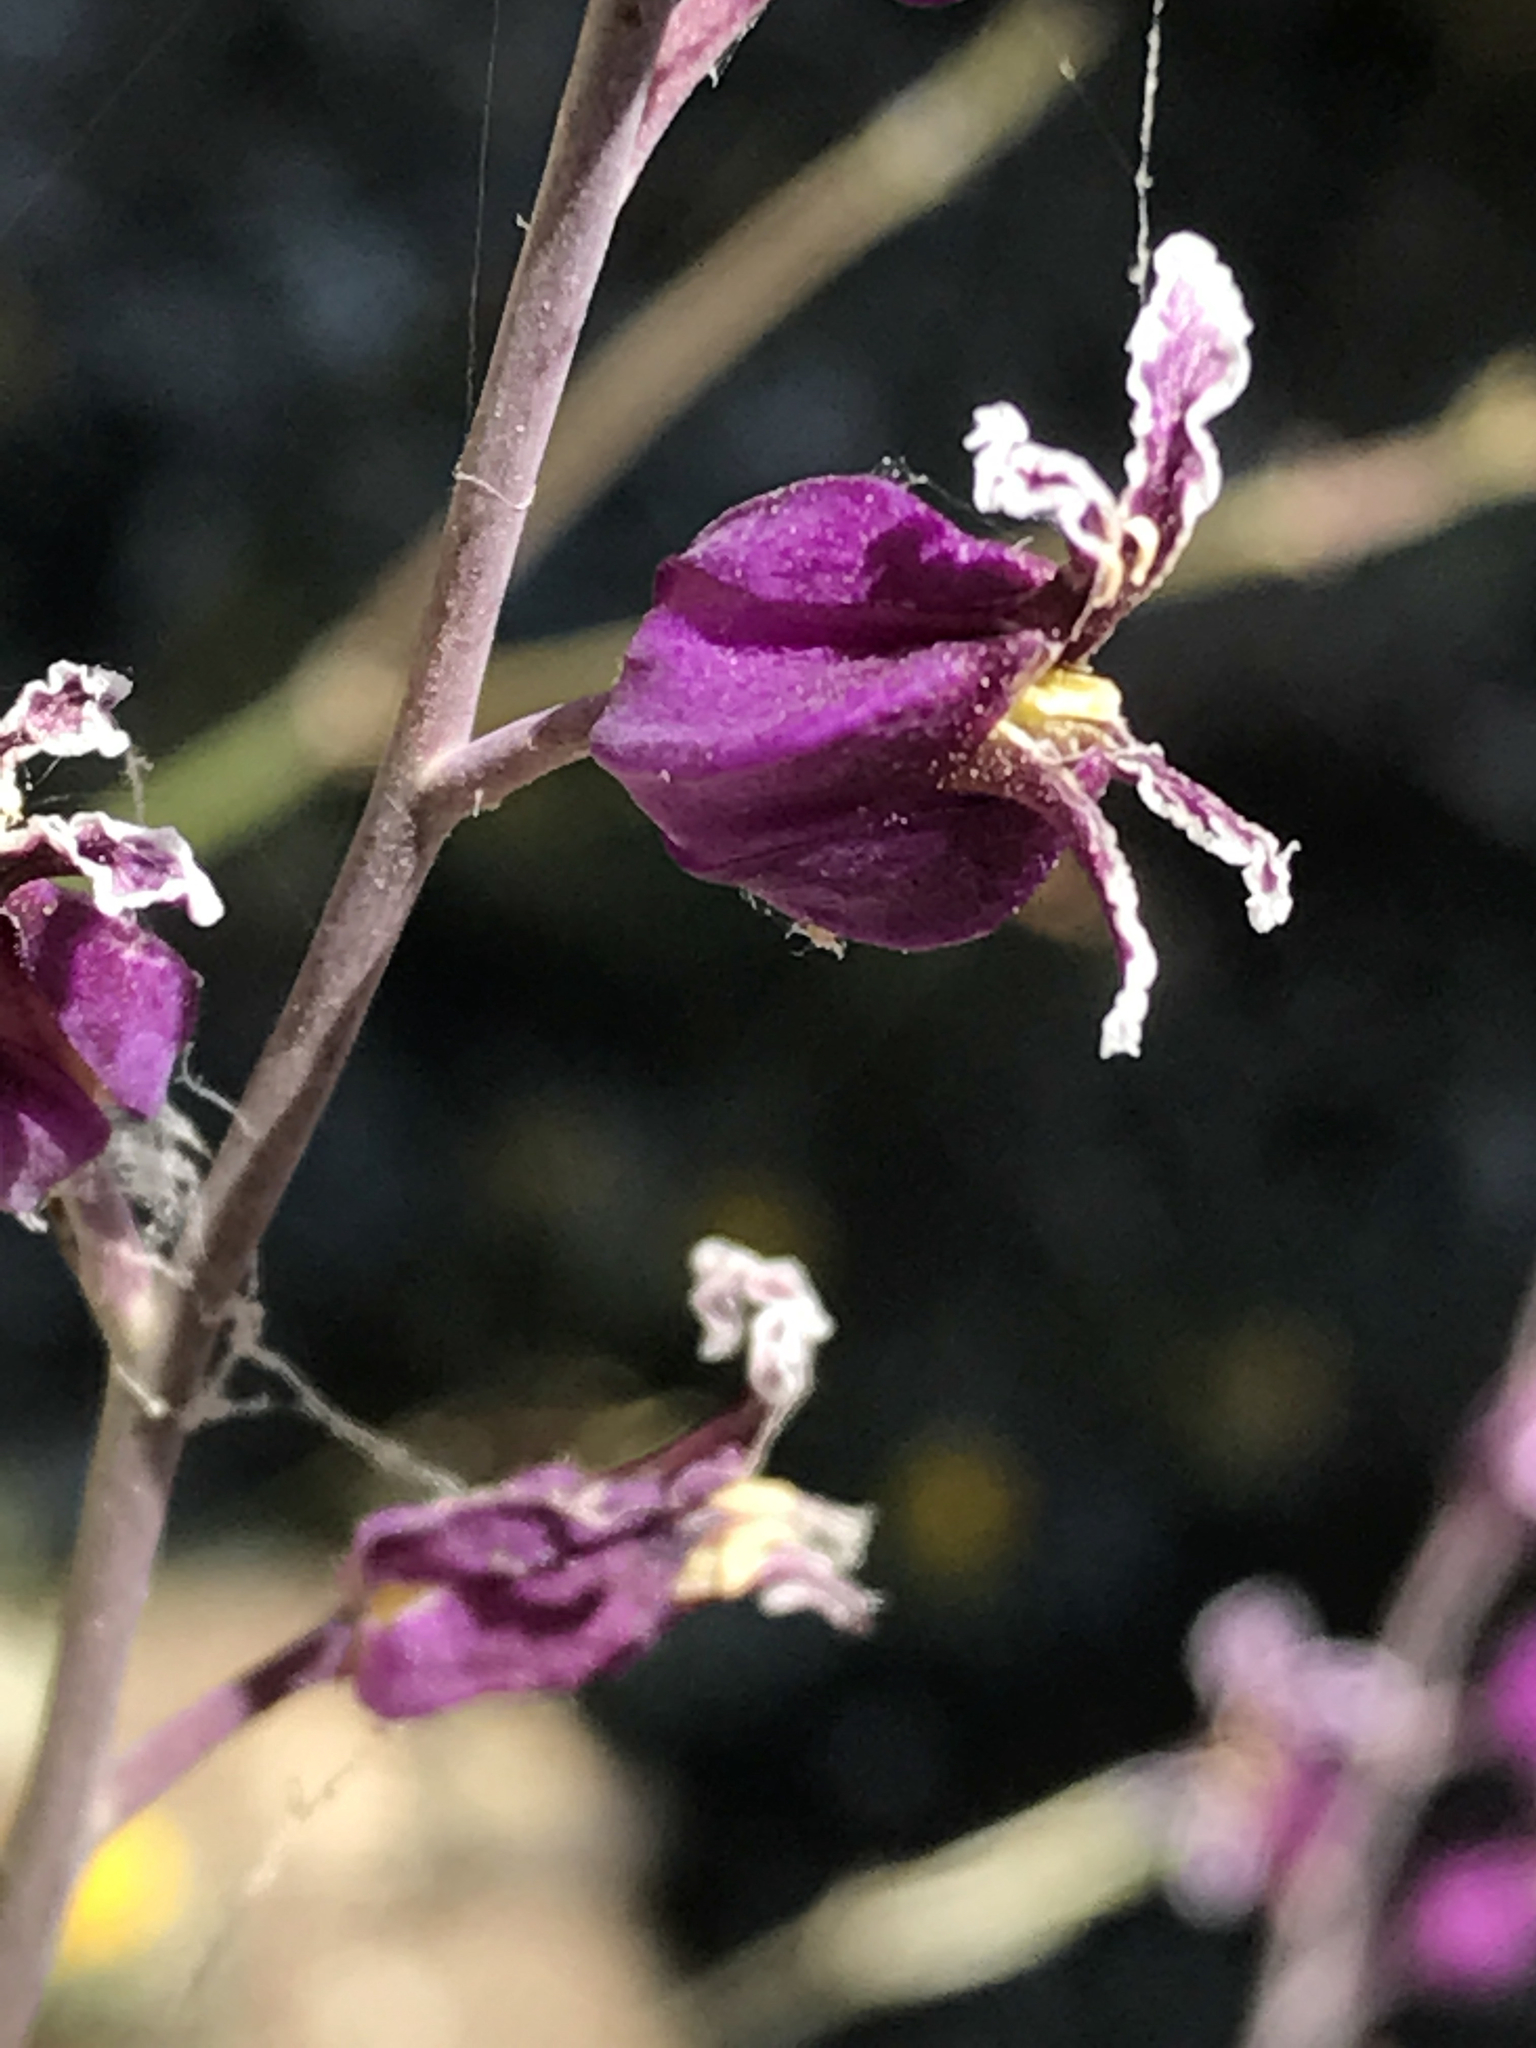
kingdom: Plantae
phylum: Tracheophyta
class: Magnoliopsida
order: Brassicales
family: Brassicaceae
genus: Streptanthus
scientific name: Streptanthus glandulosus
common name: Jewel-flower
